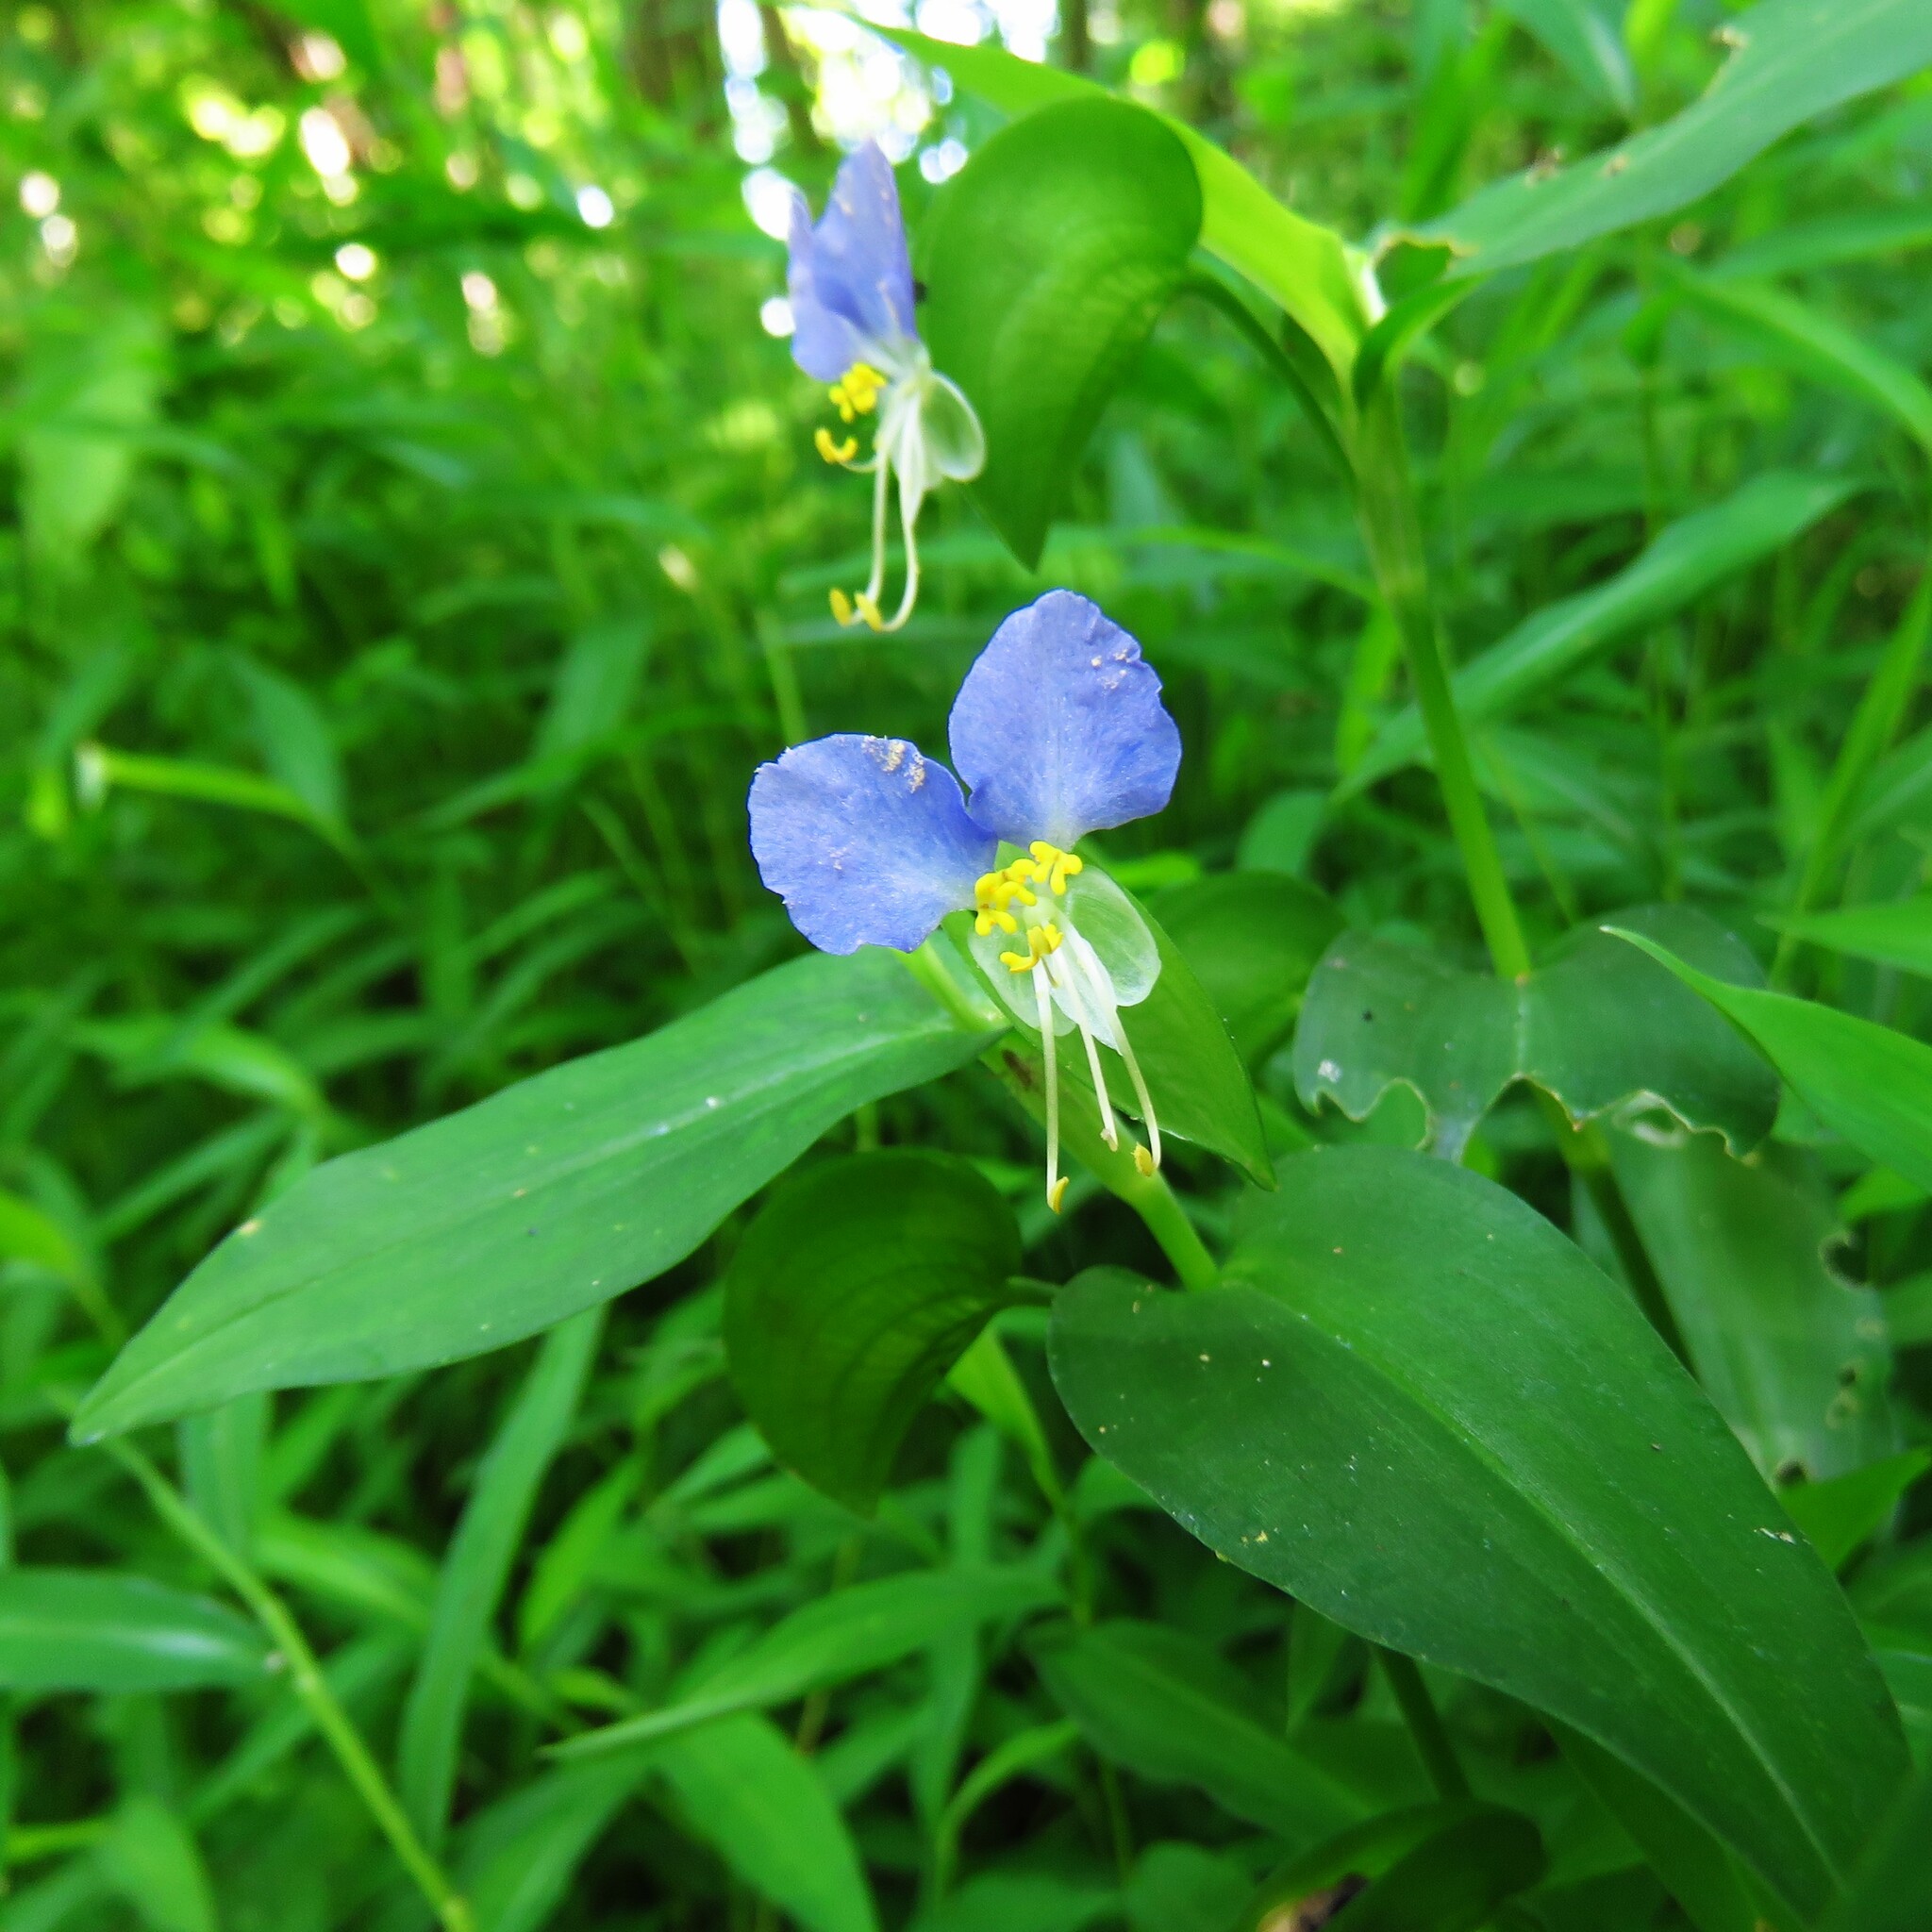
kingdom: Plantae
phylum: Tracheophyta
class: Liliopsida
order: Commelinales
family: Commelinaceae
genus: Commelina
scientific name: Commelina communis
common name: Asiatic dayflower
